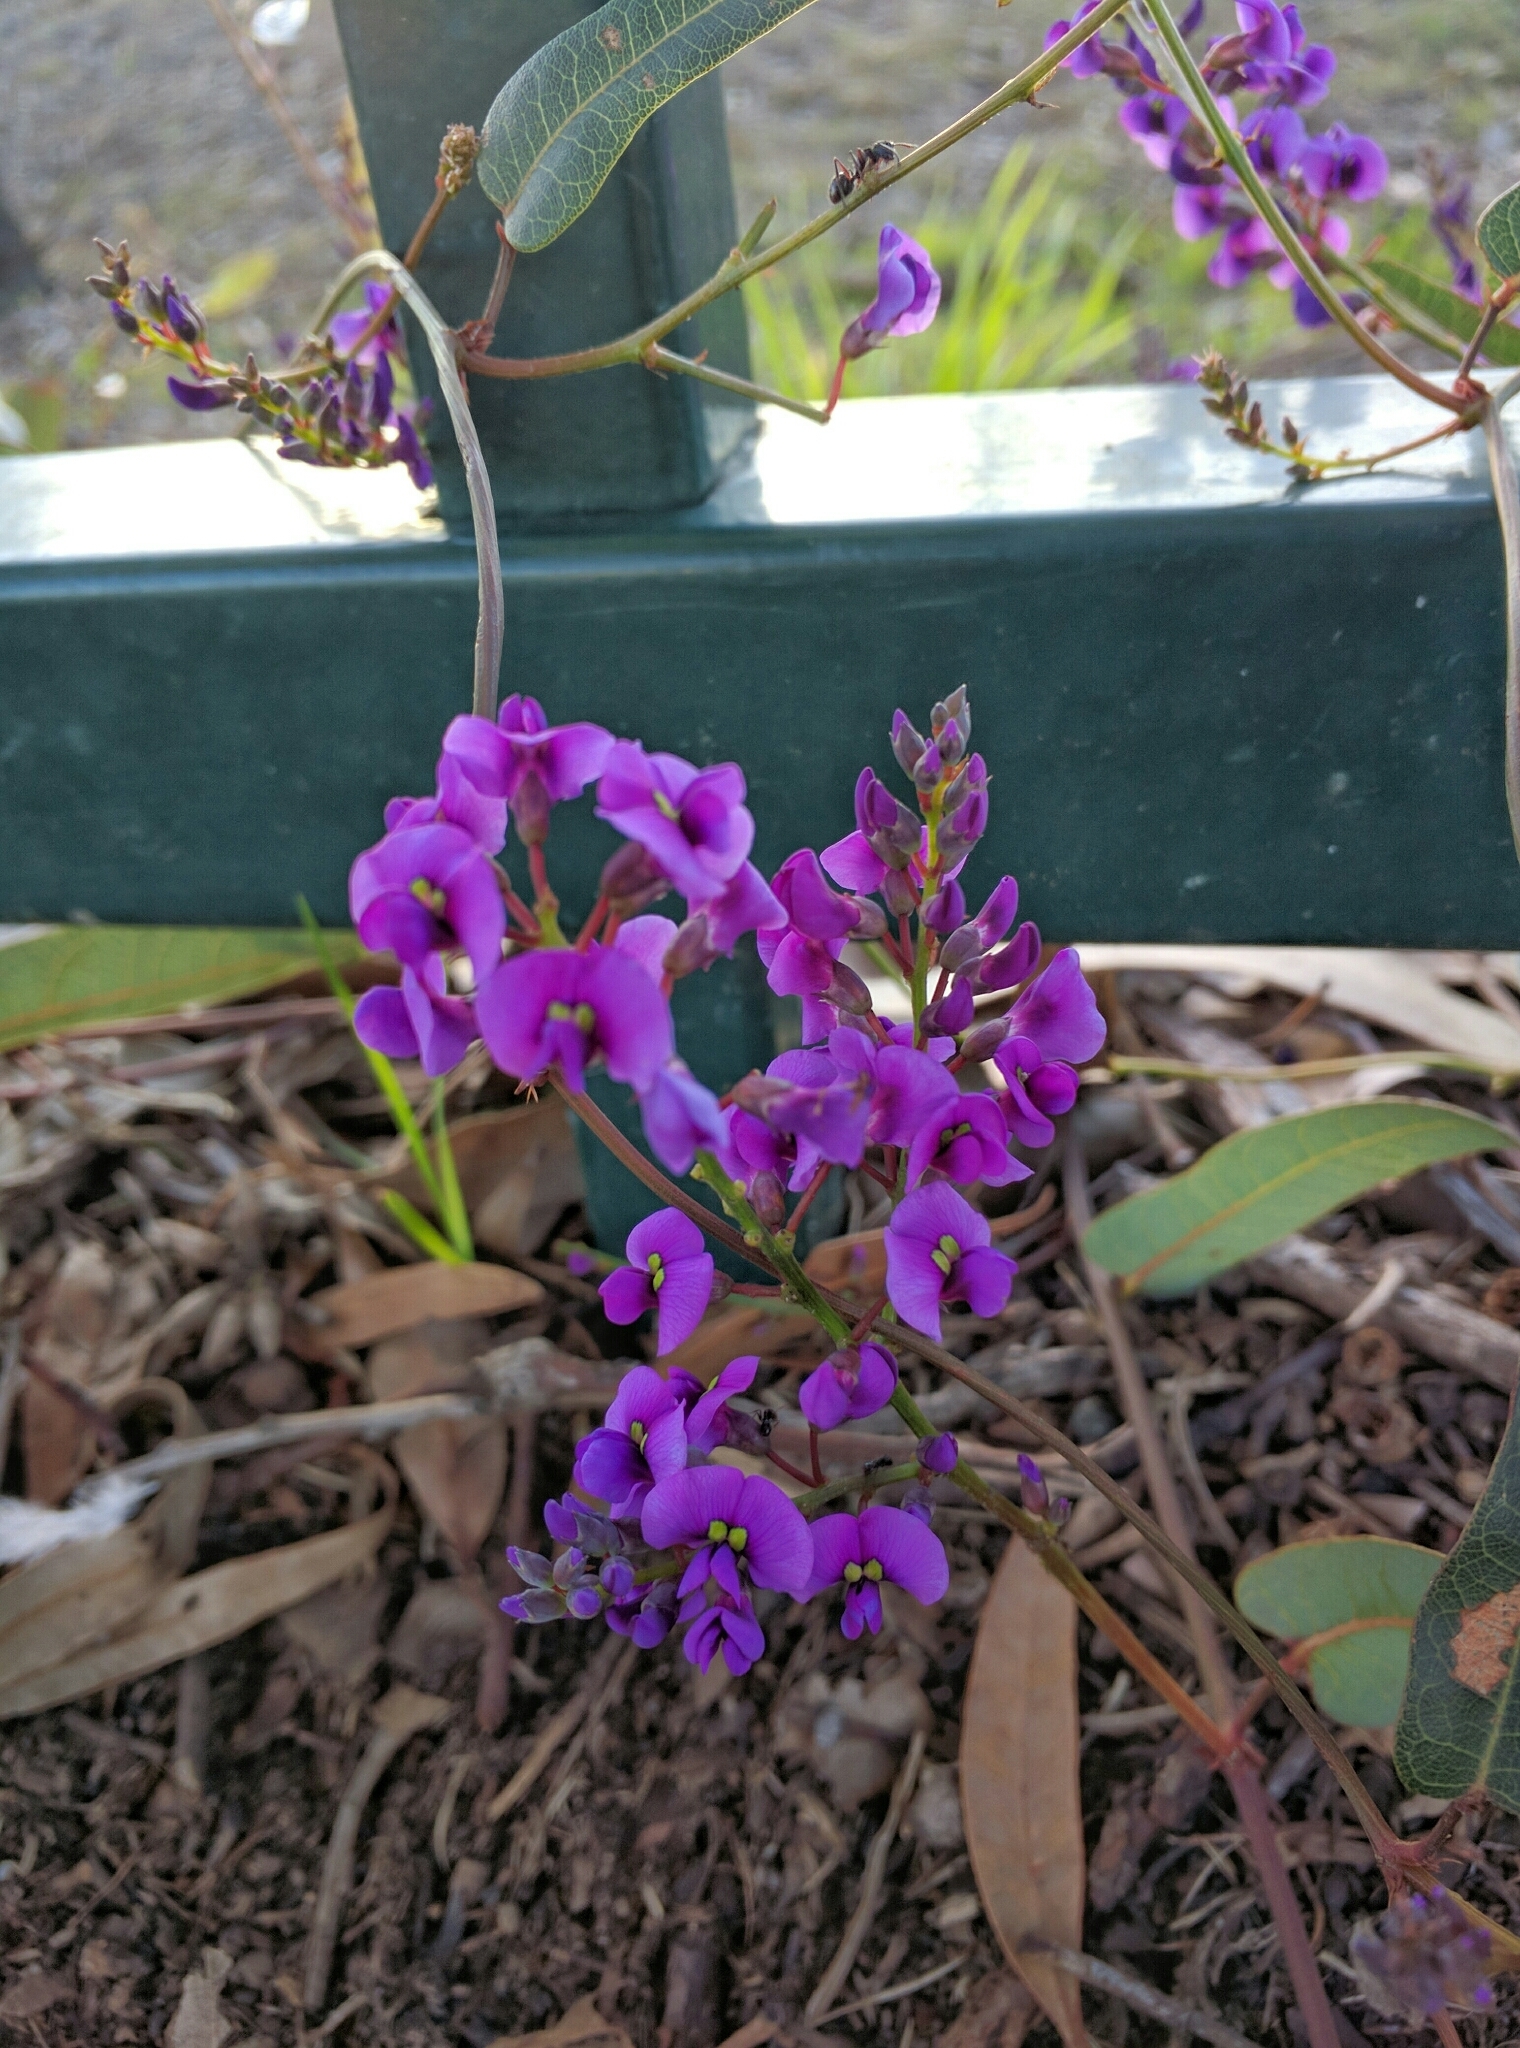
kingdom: Plantae
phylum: Tracheophyta
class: Magnoliopsida
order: Fabales
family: Fabaceae
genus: Hardenbergia
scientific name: Hardenbergia violacea
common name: Coral-pea
